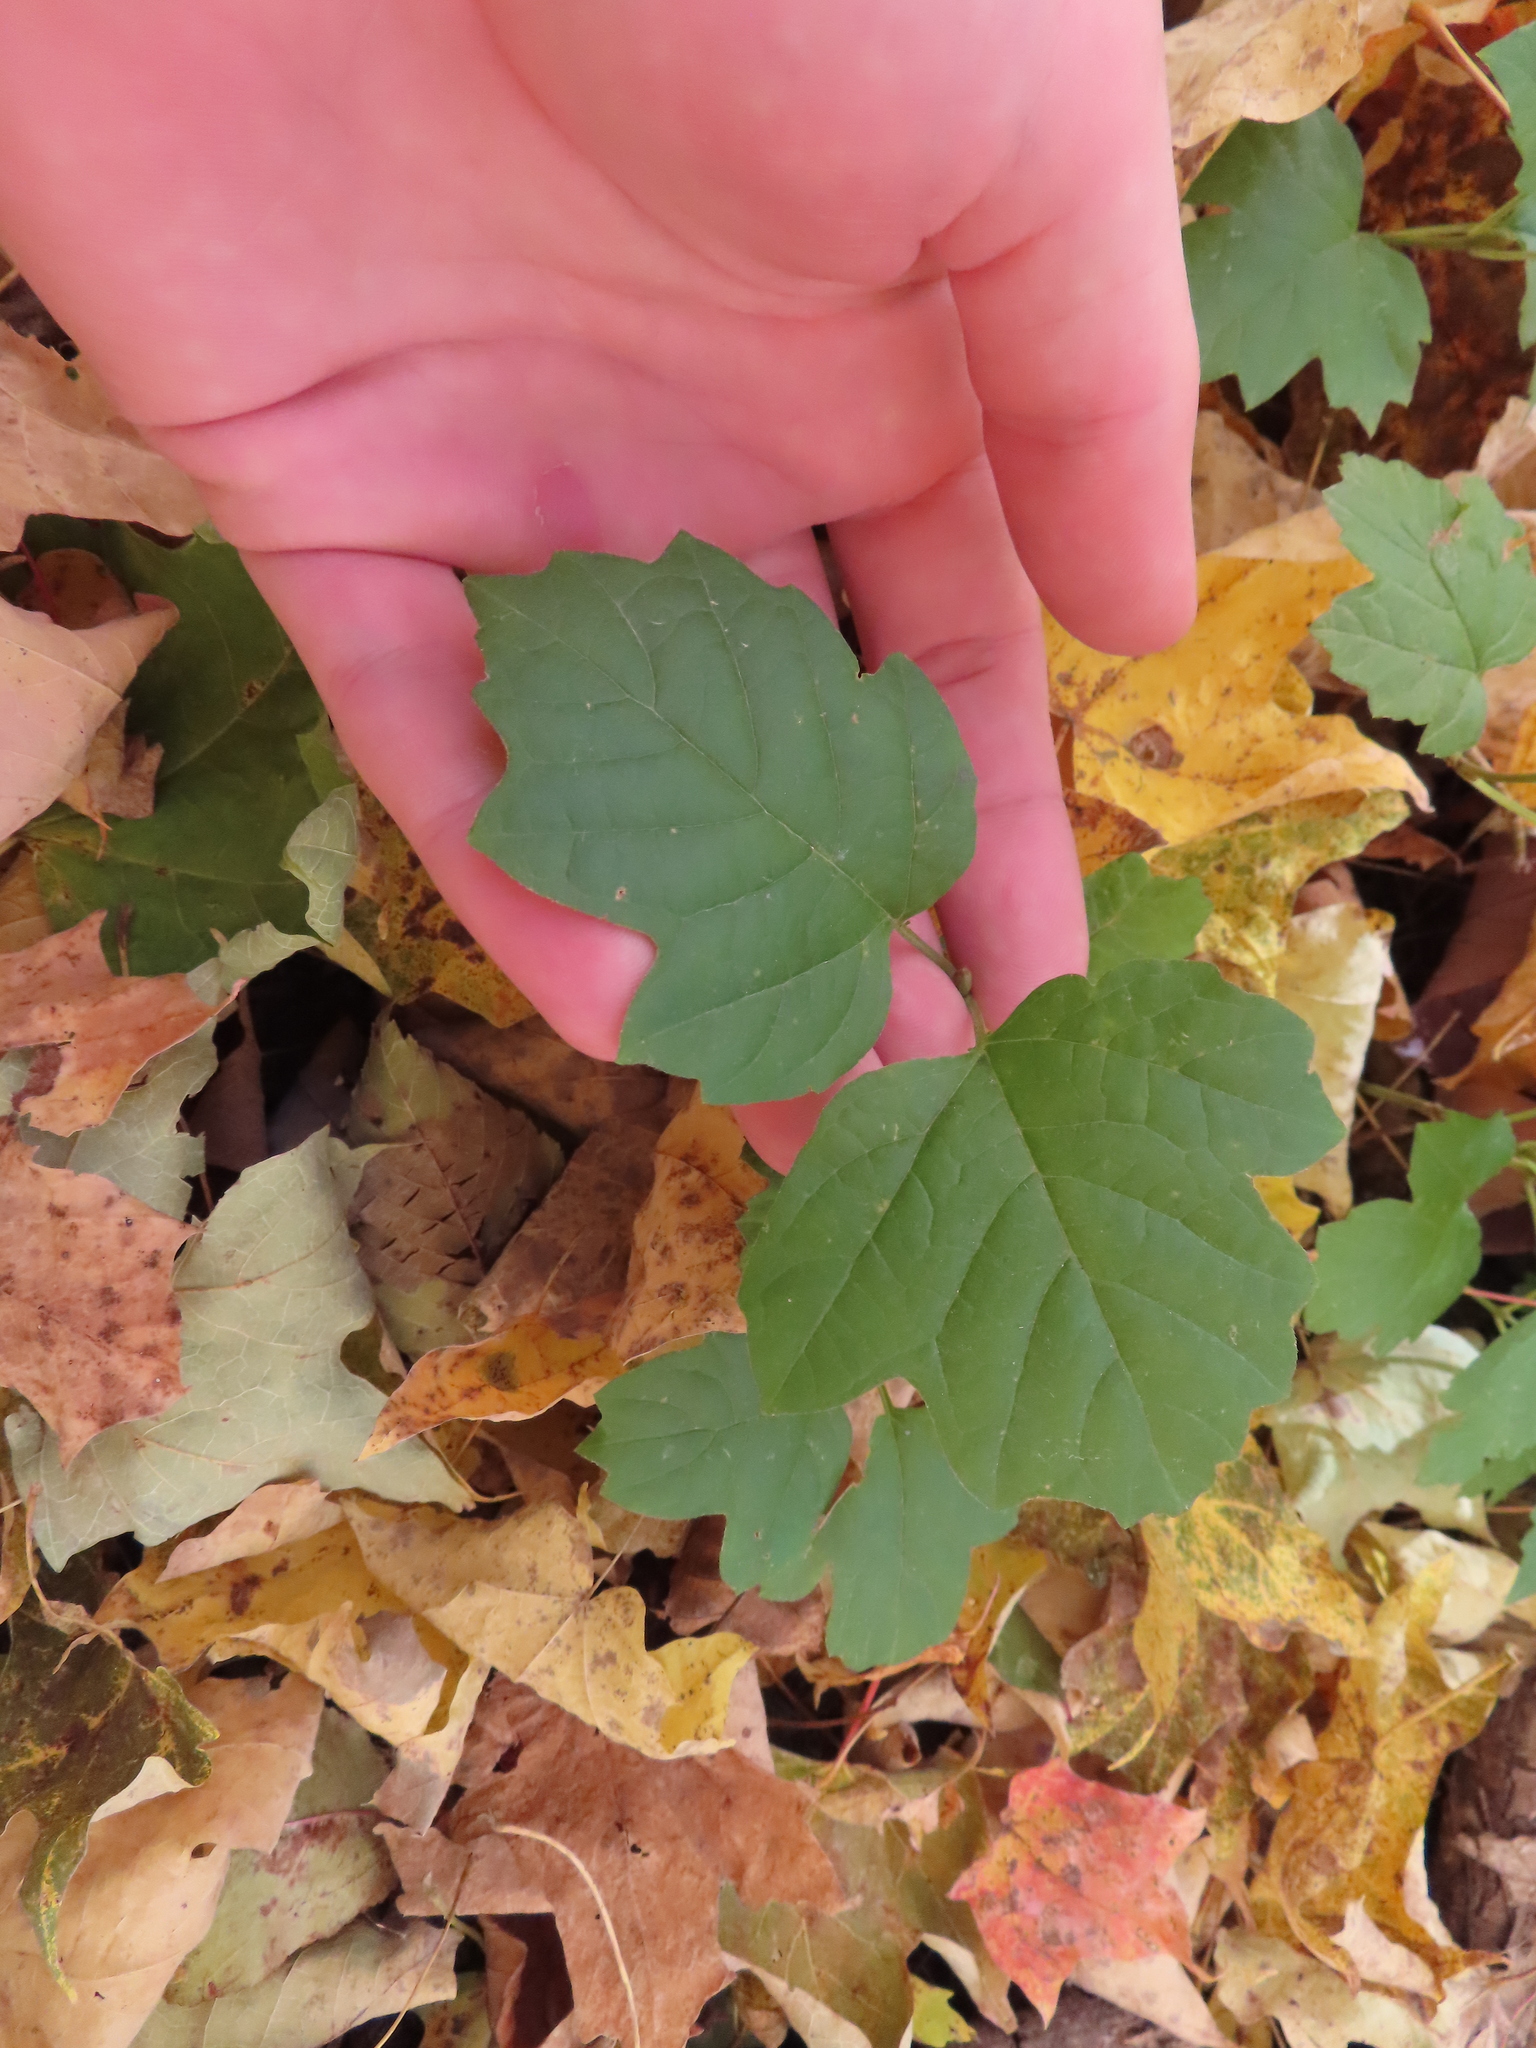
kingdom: Plantae
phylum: Tracheophyta
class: Magnoliopsida
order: Dipsacales
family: Viburnaceae
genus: Viburnum
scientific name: Viburnum opulus
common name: Guelder-rose
